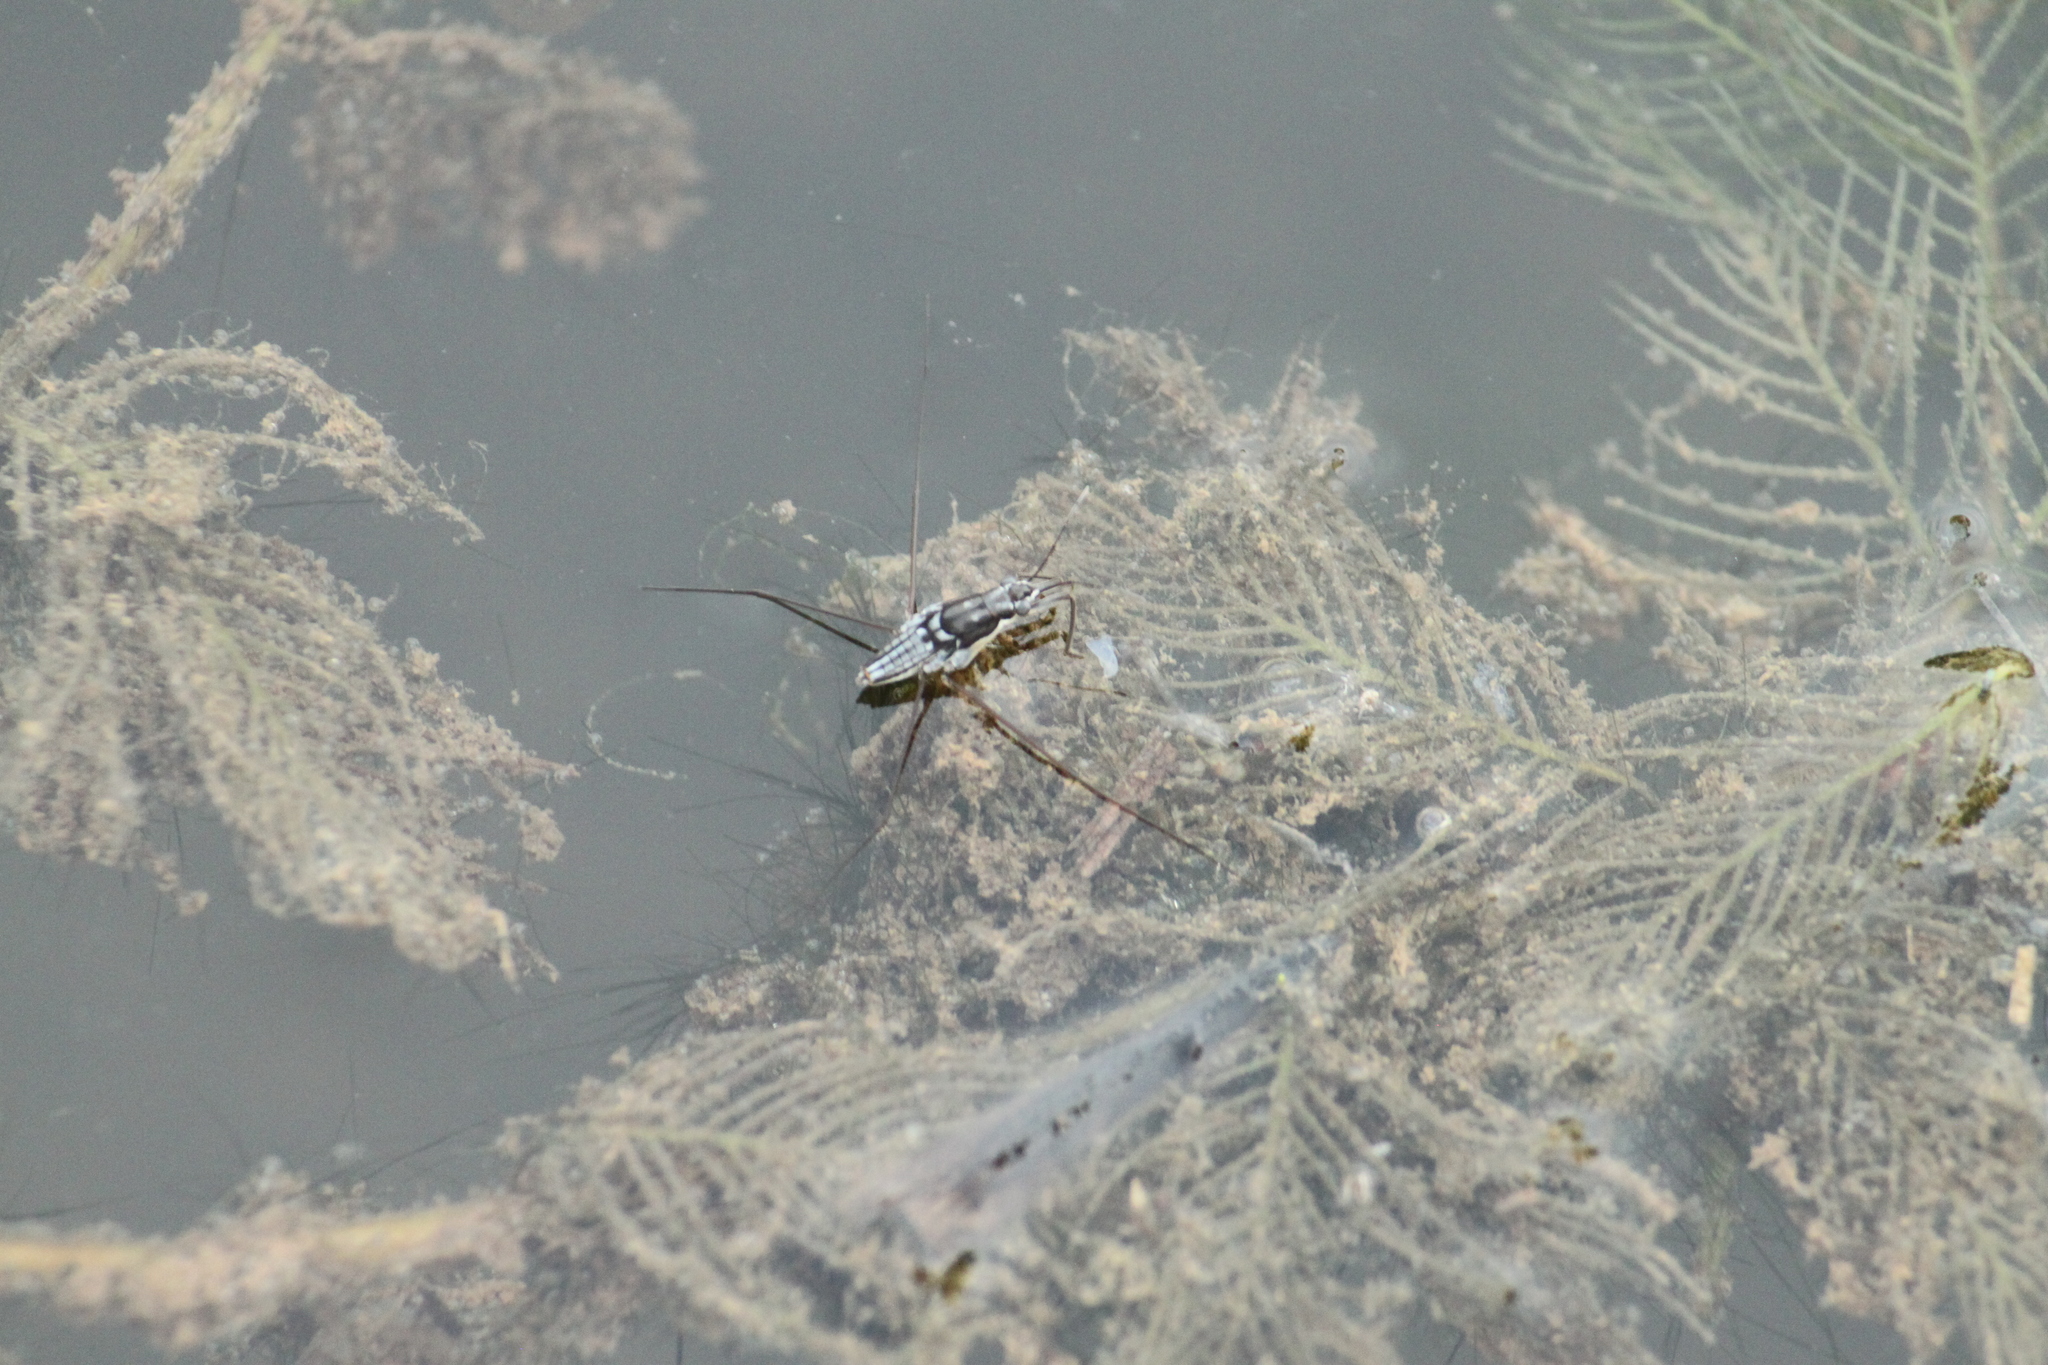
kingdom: Animalia
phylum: Arthropoda
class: Insecta
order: Hemiptera
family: Gerridae
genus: Neogerris
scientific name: Neogerris hesione
